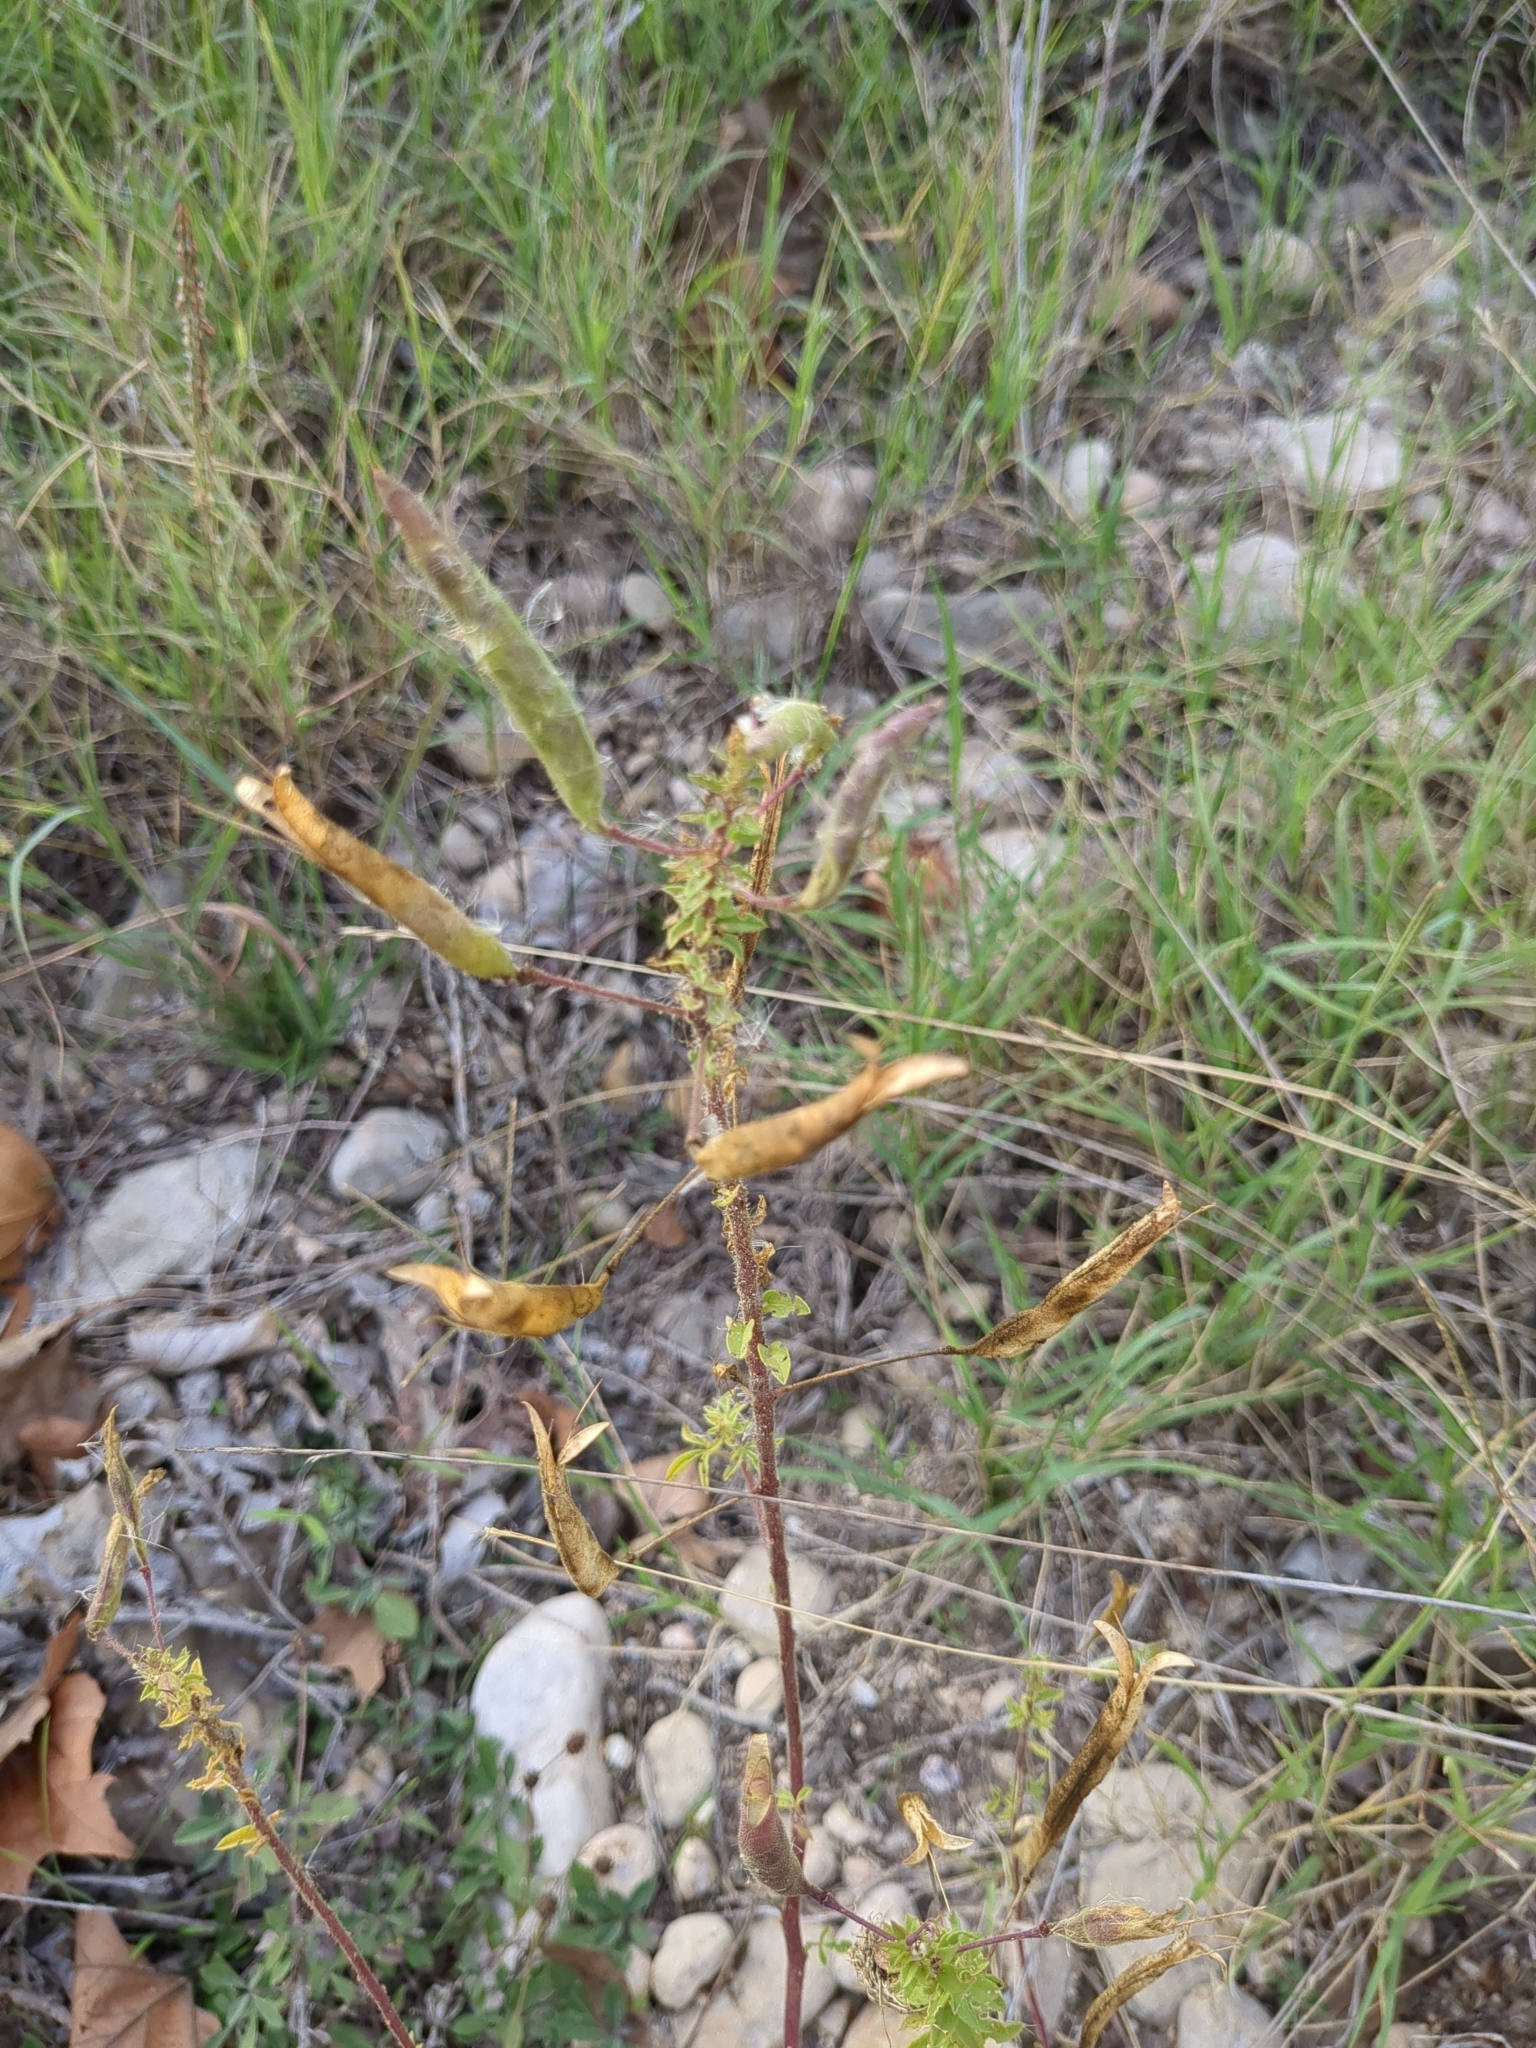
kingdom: Plantae
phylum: Tracheophyta
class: Magnoliopsida
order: Brassicales
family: Cleomaceae
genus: Polanisia
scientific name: Polanisia dodecandra
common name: Clammyweed
